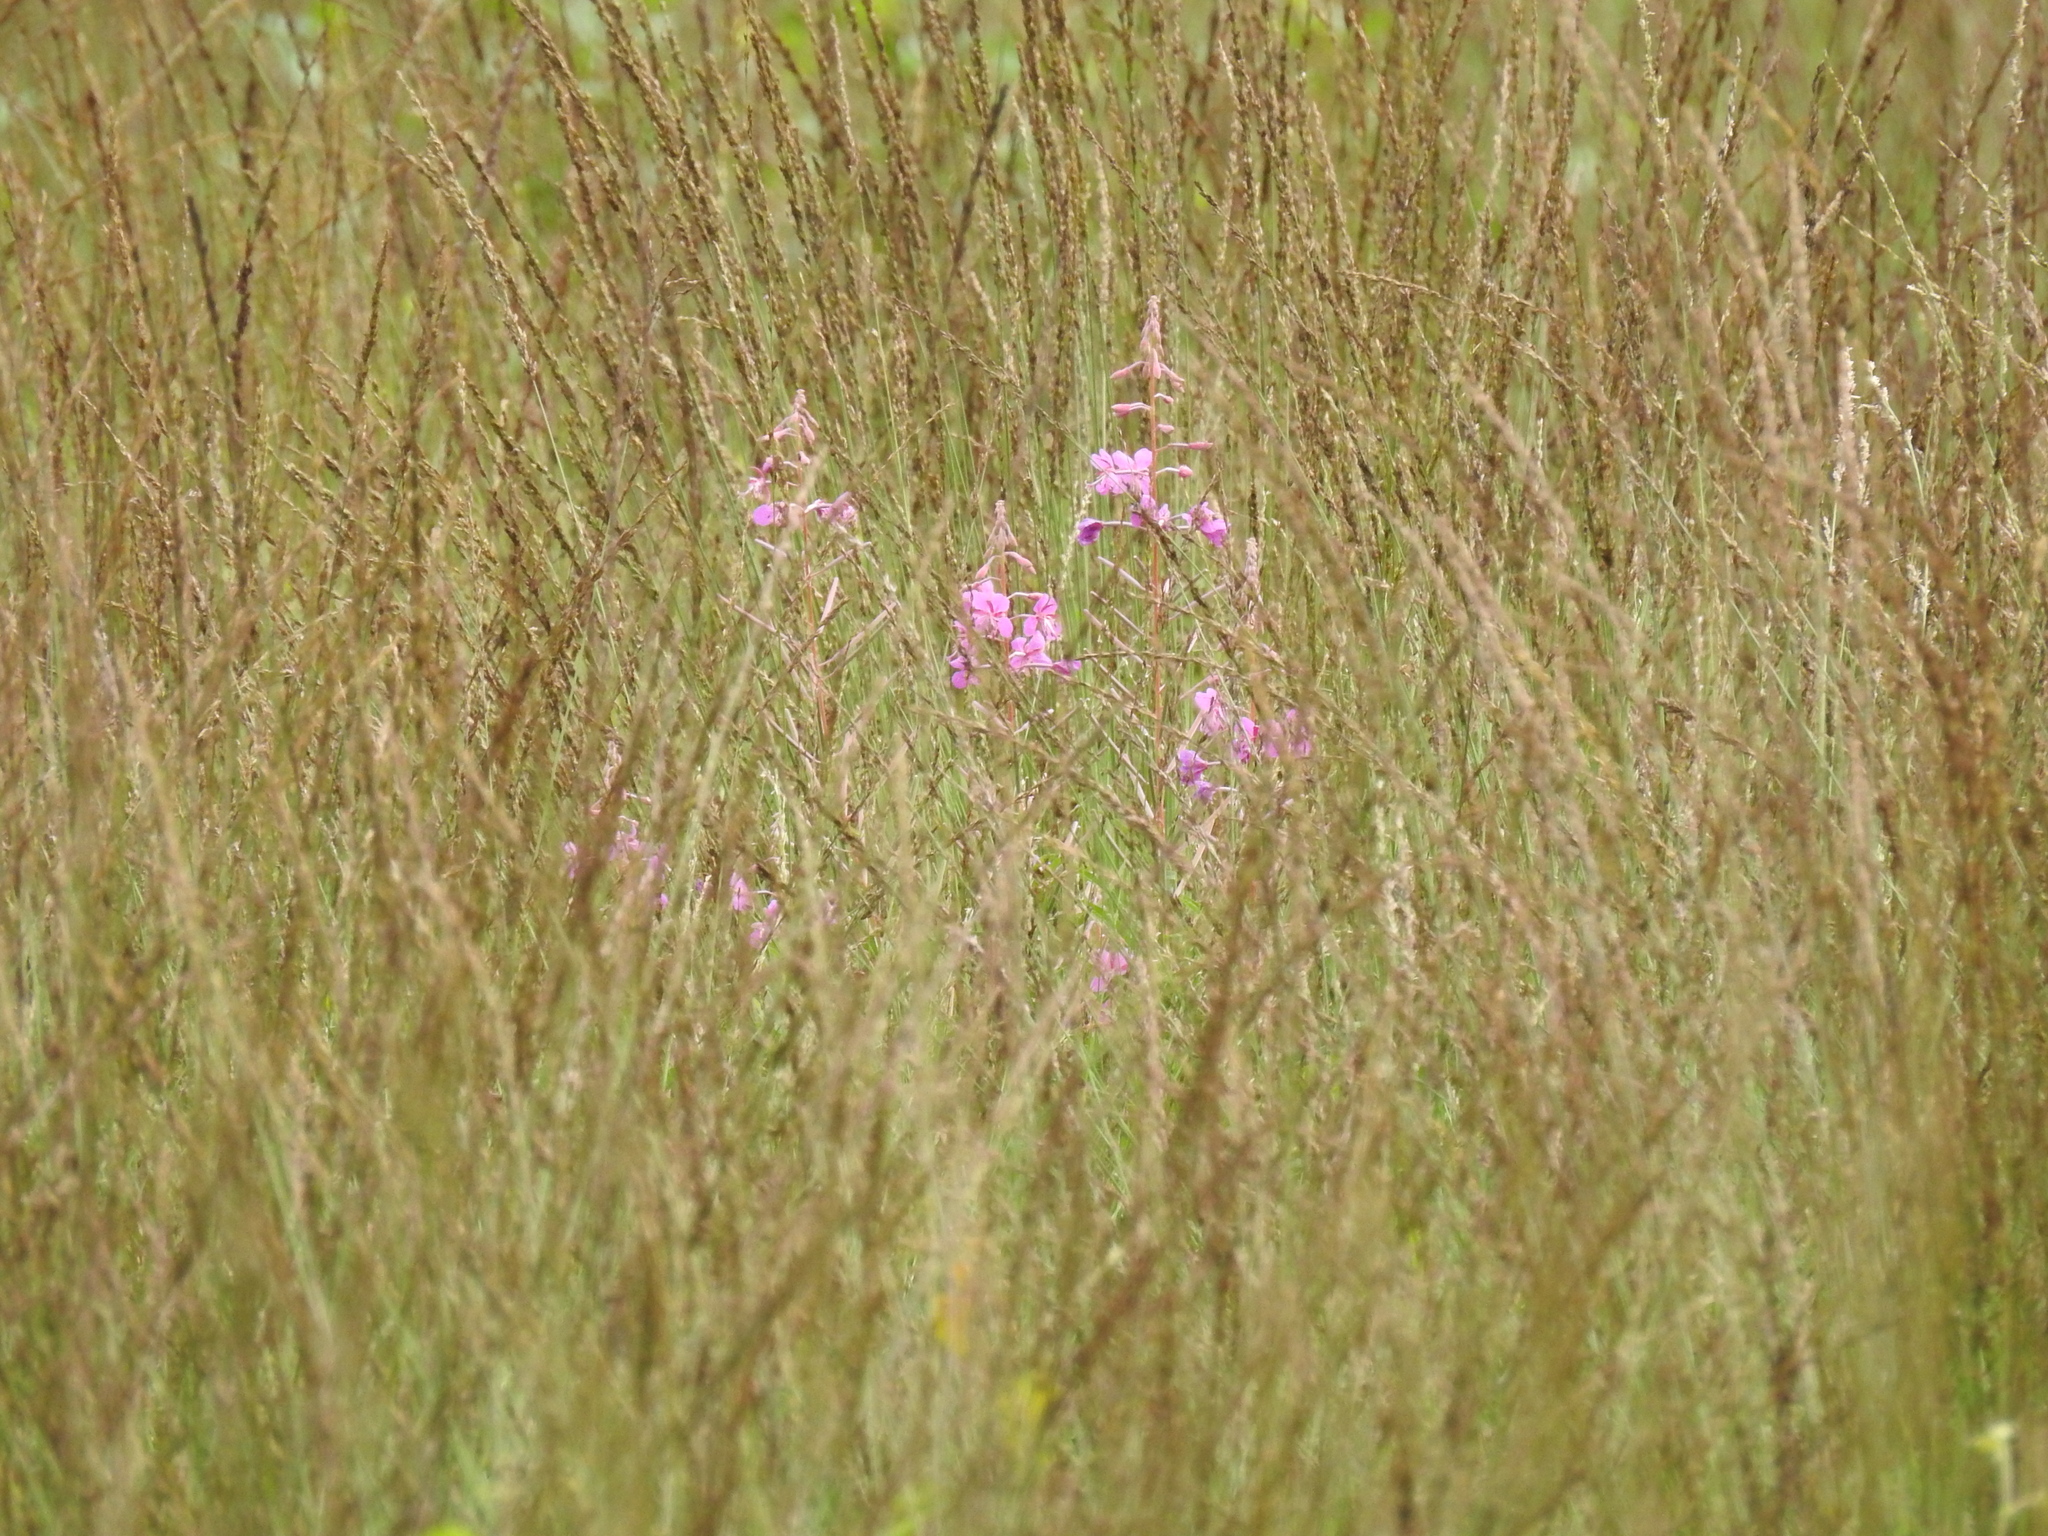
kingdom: Plantae
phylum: Tracheophyta
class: Magnoliopsida
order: Myrtales
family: Onagraceae
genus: Chamaenerion
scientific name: Chamaenerion angustifolium
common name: Fireweed
